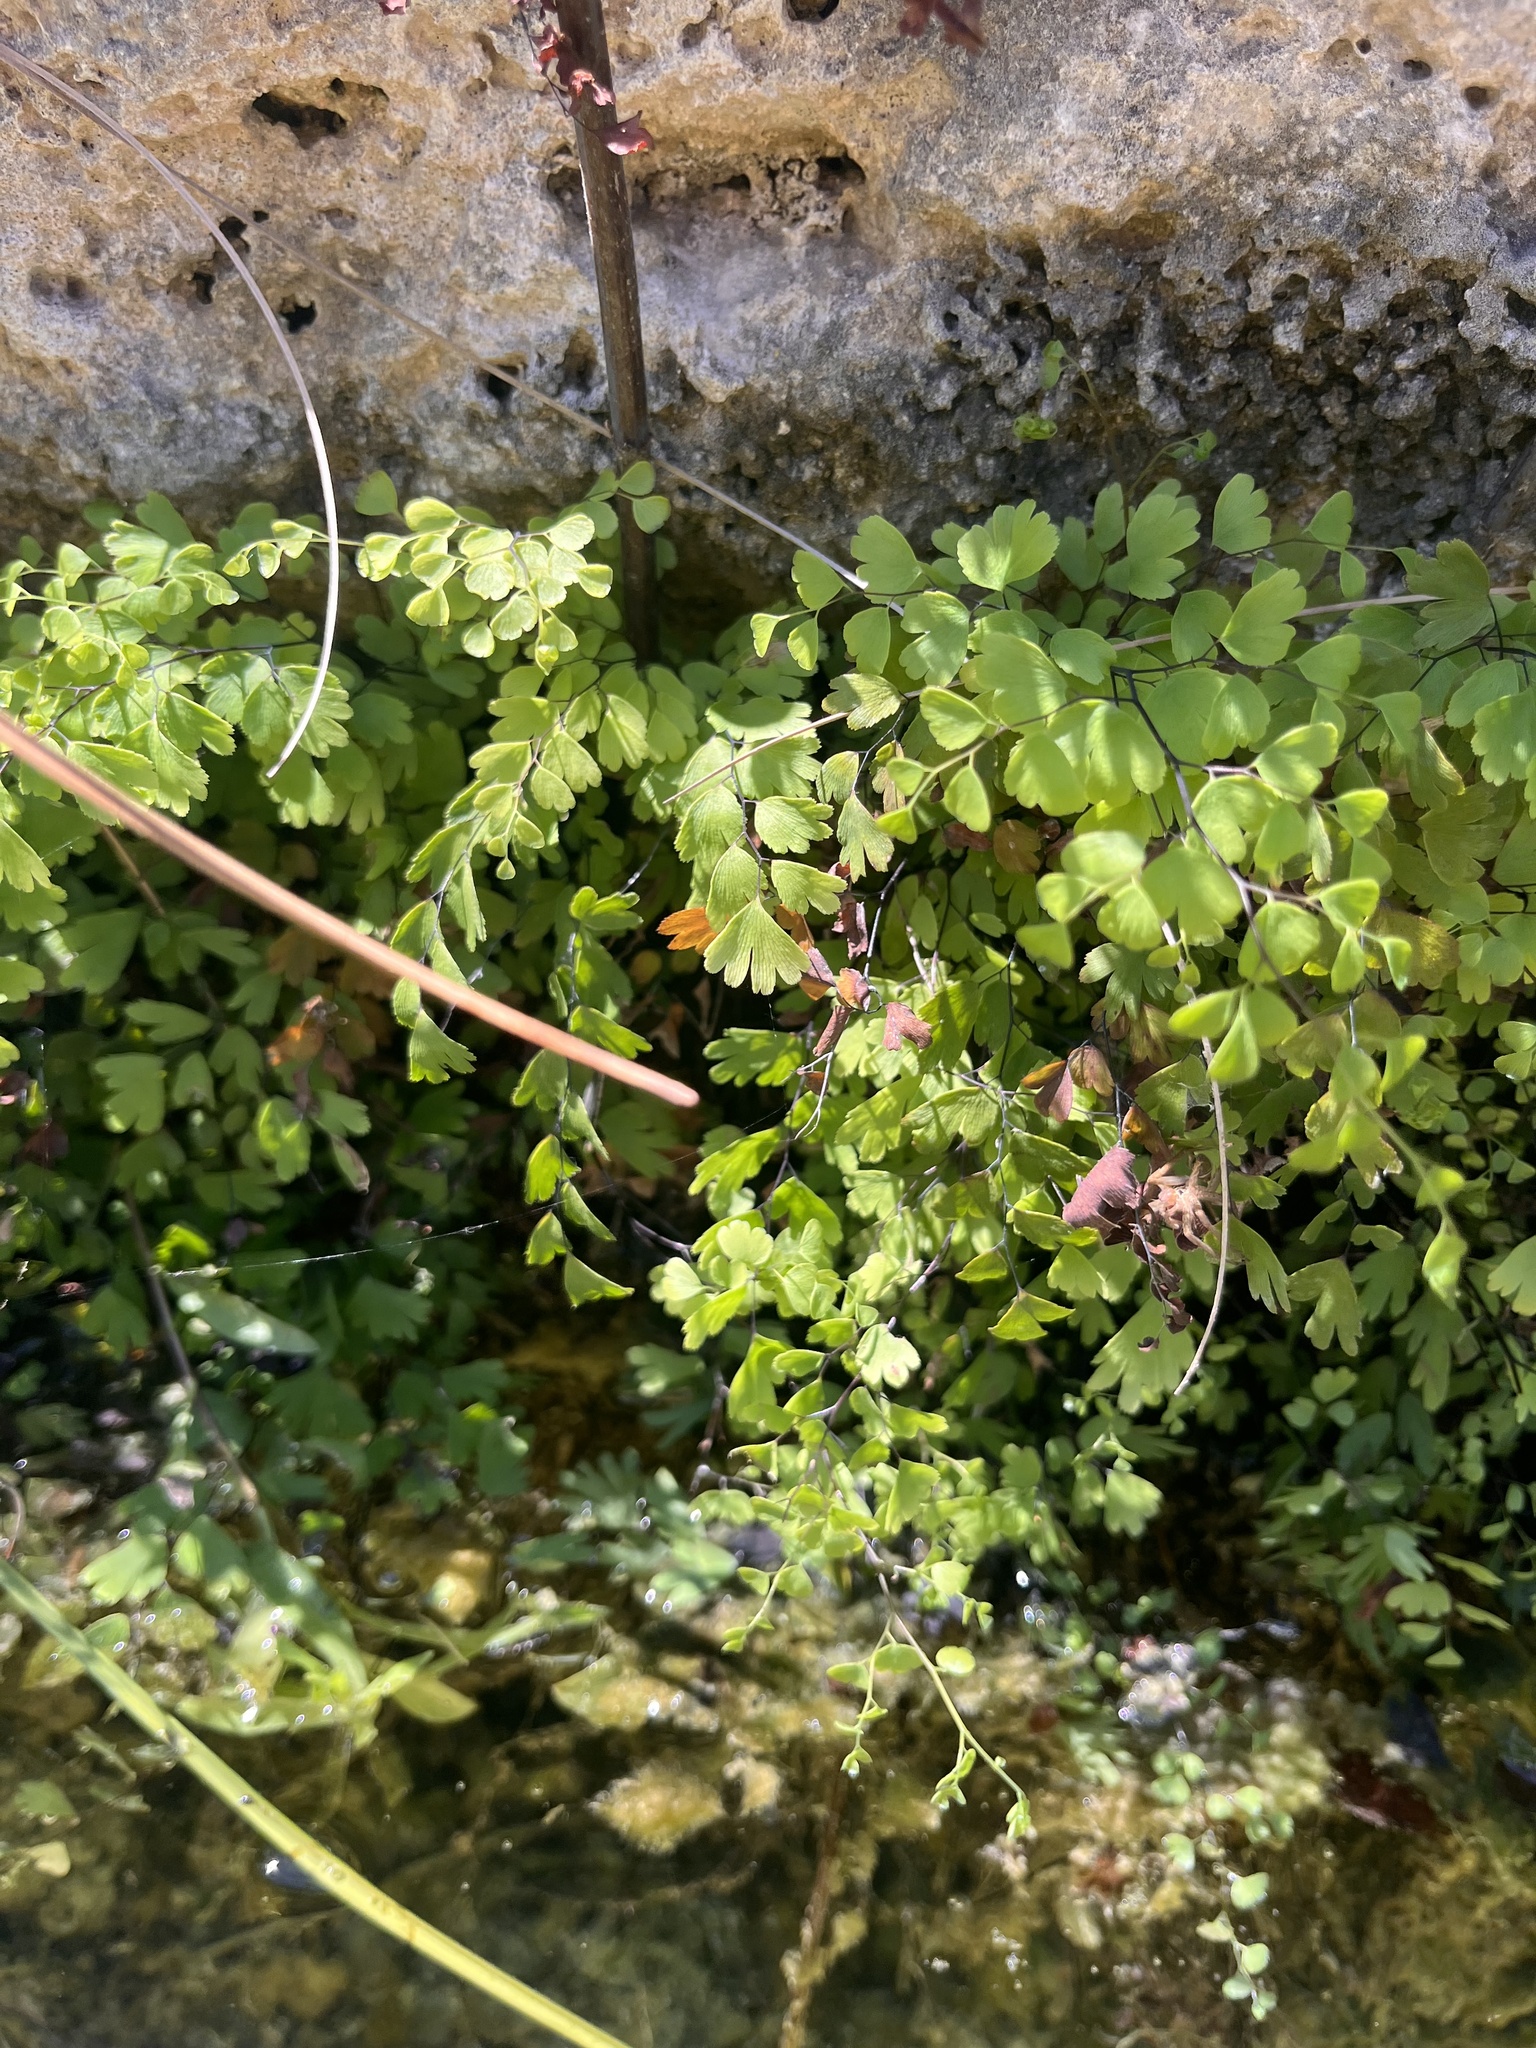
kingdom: Plantae
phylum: Tracheophyta
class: Polypodiopsida
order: Polypodiales
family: Pteridaceae
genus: Adiantum
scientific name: Adiantum capillus-veneris
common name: Maidenhair fern
